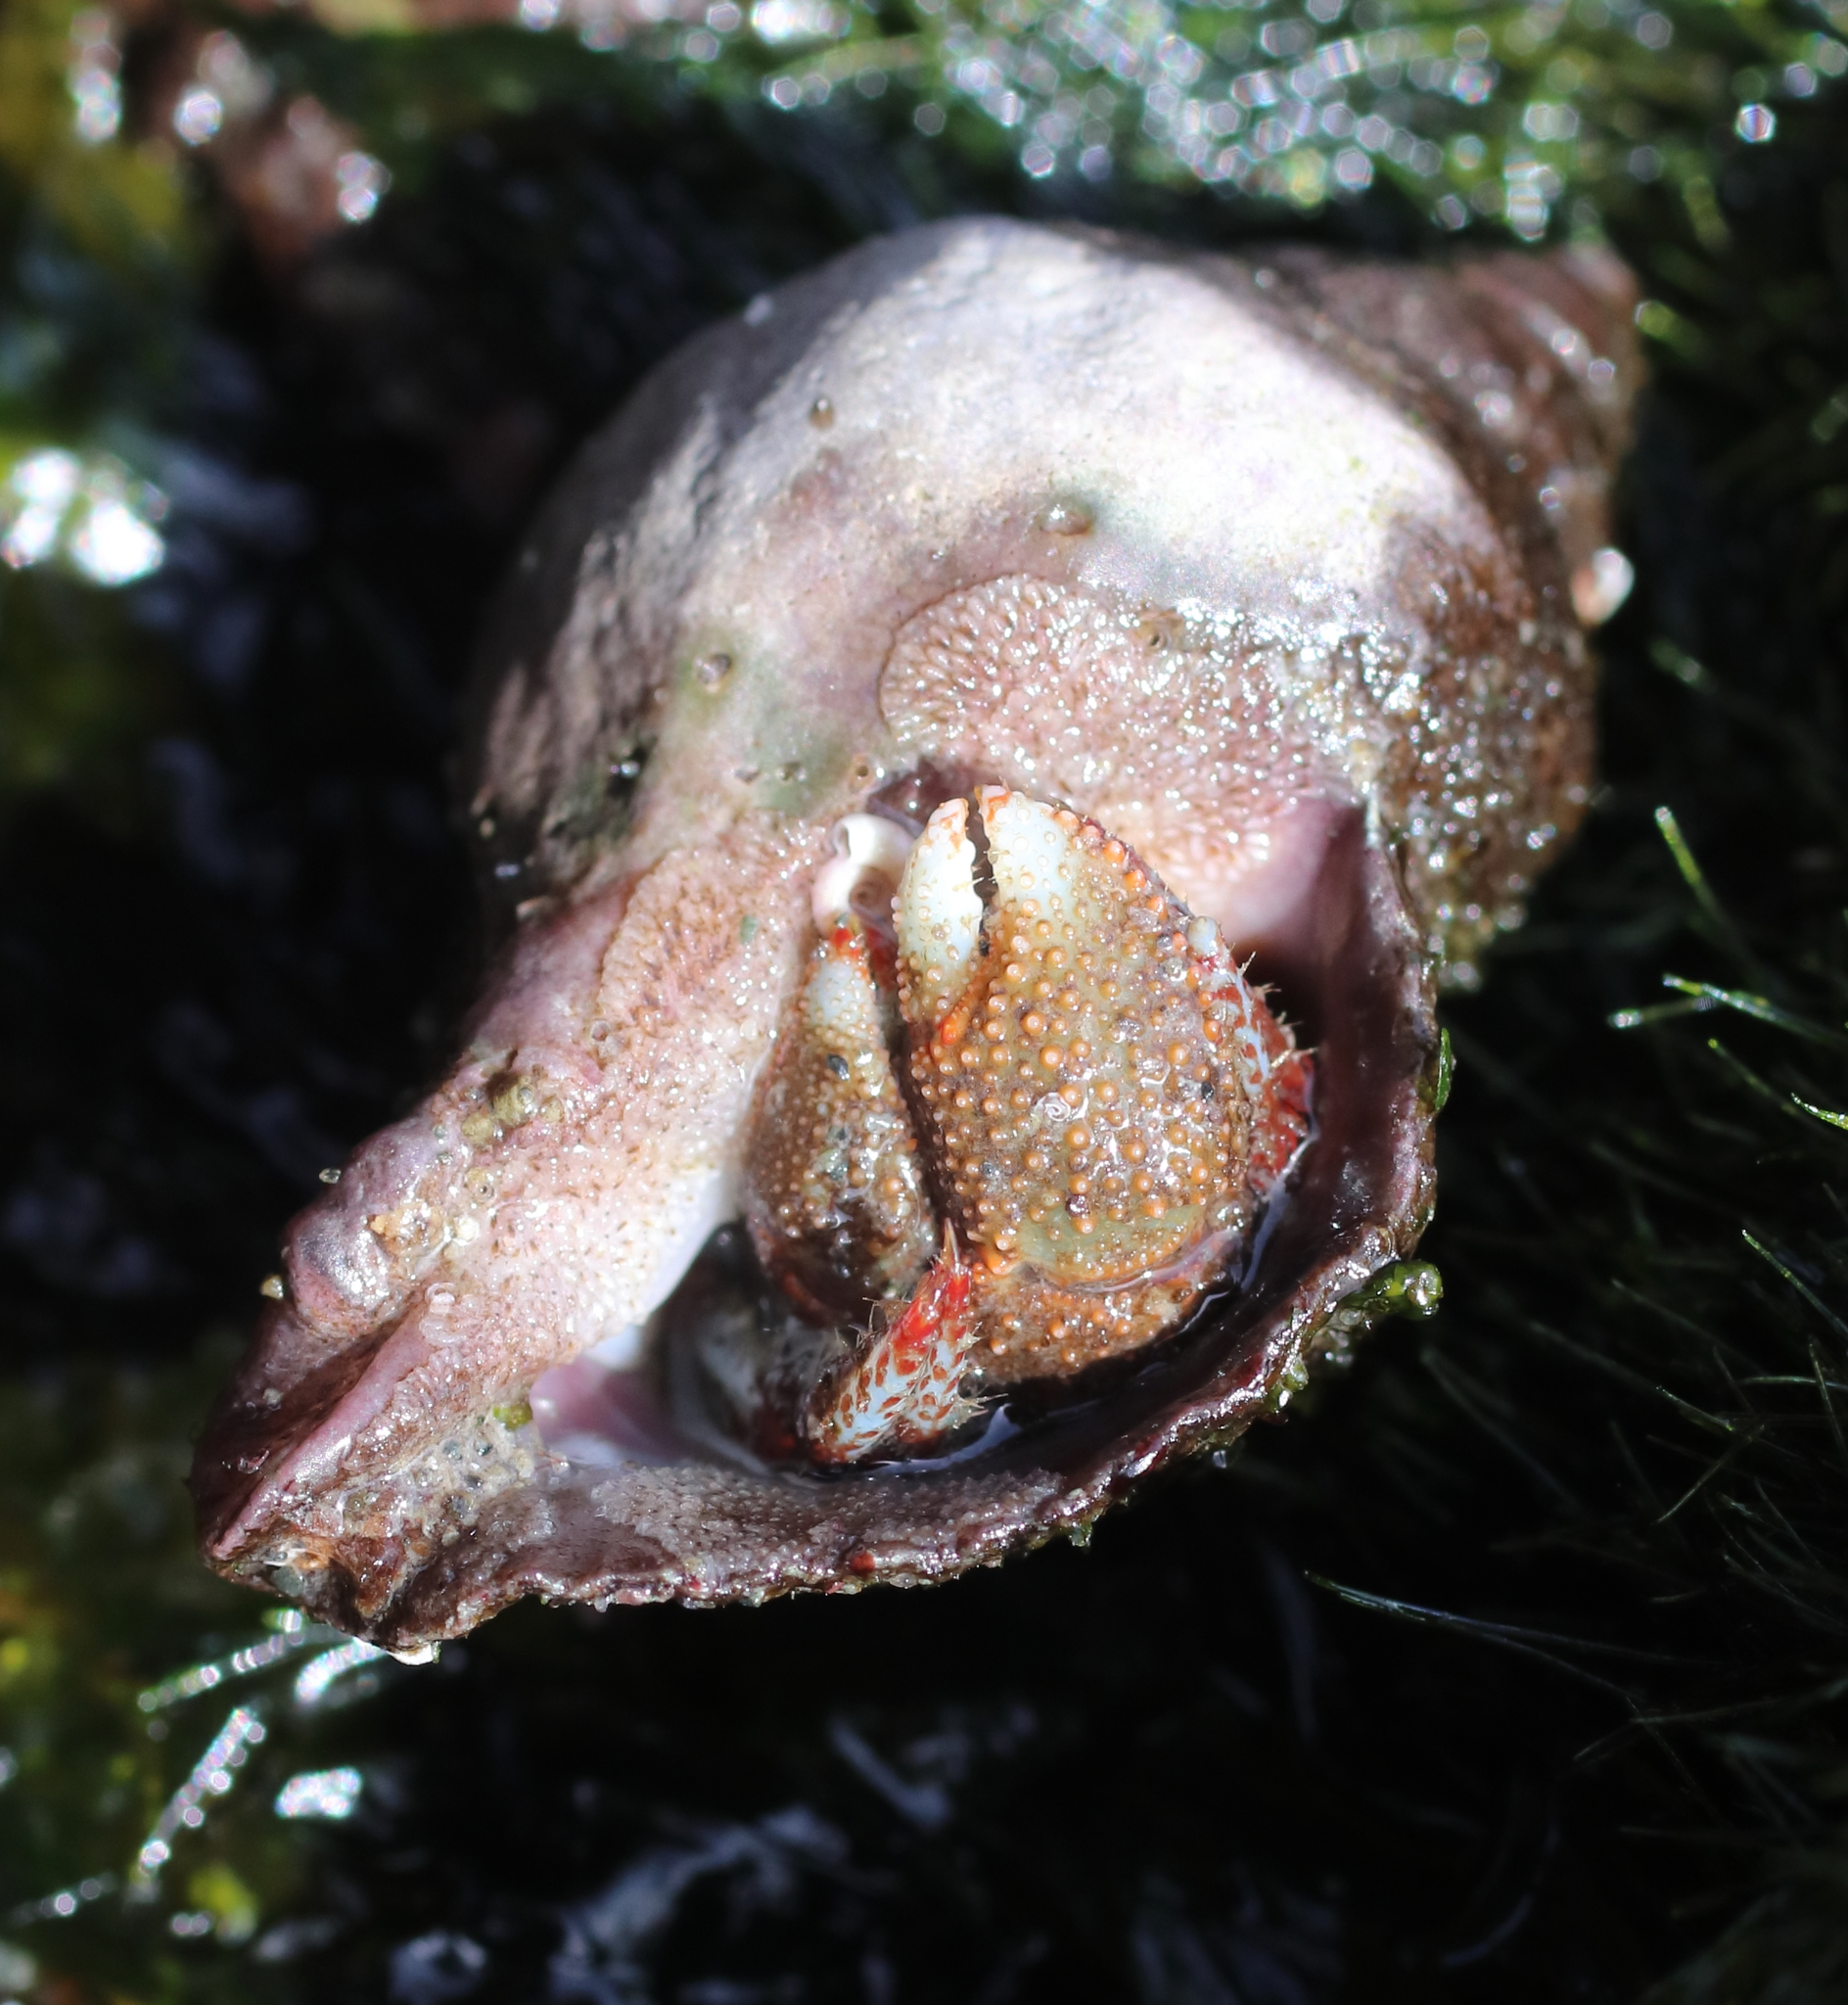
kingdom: Animalia
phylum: Arthropoda
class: Malacostraca
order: Decapoda
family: Paguridae
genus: Pagurus
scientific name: Pagurus beringanus
